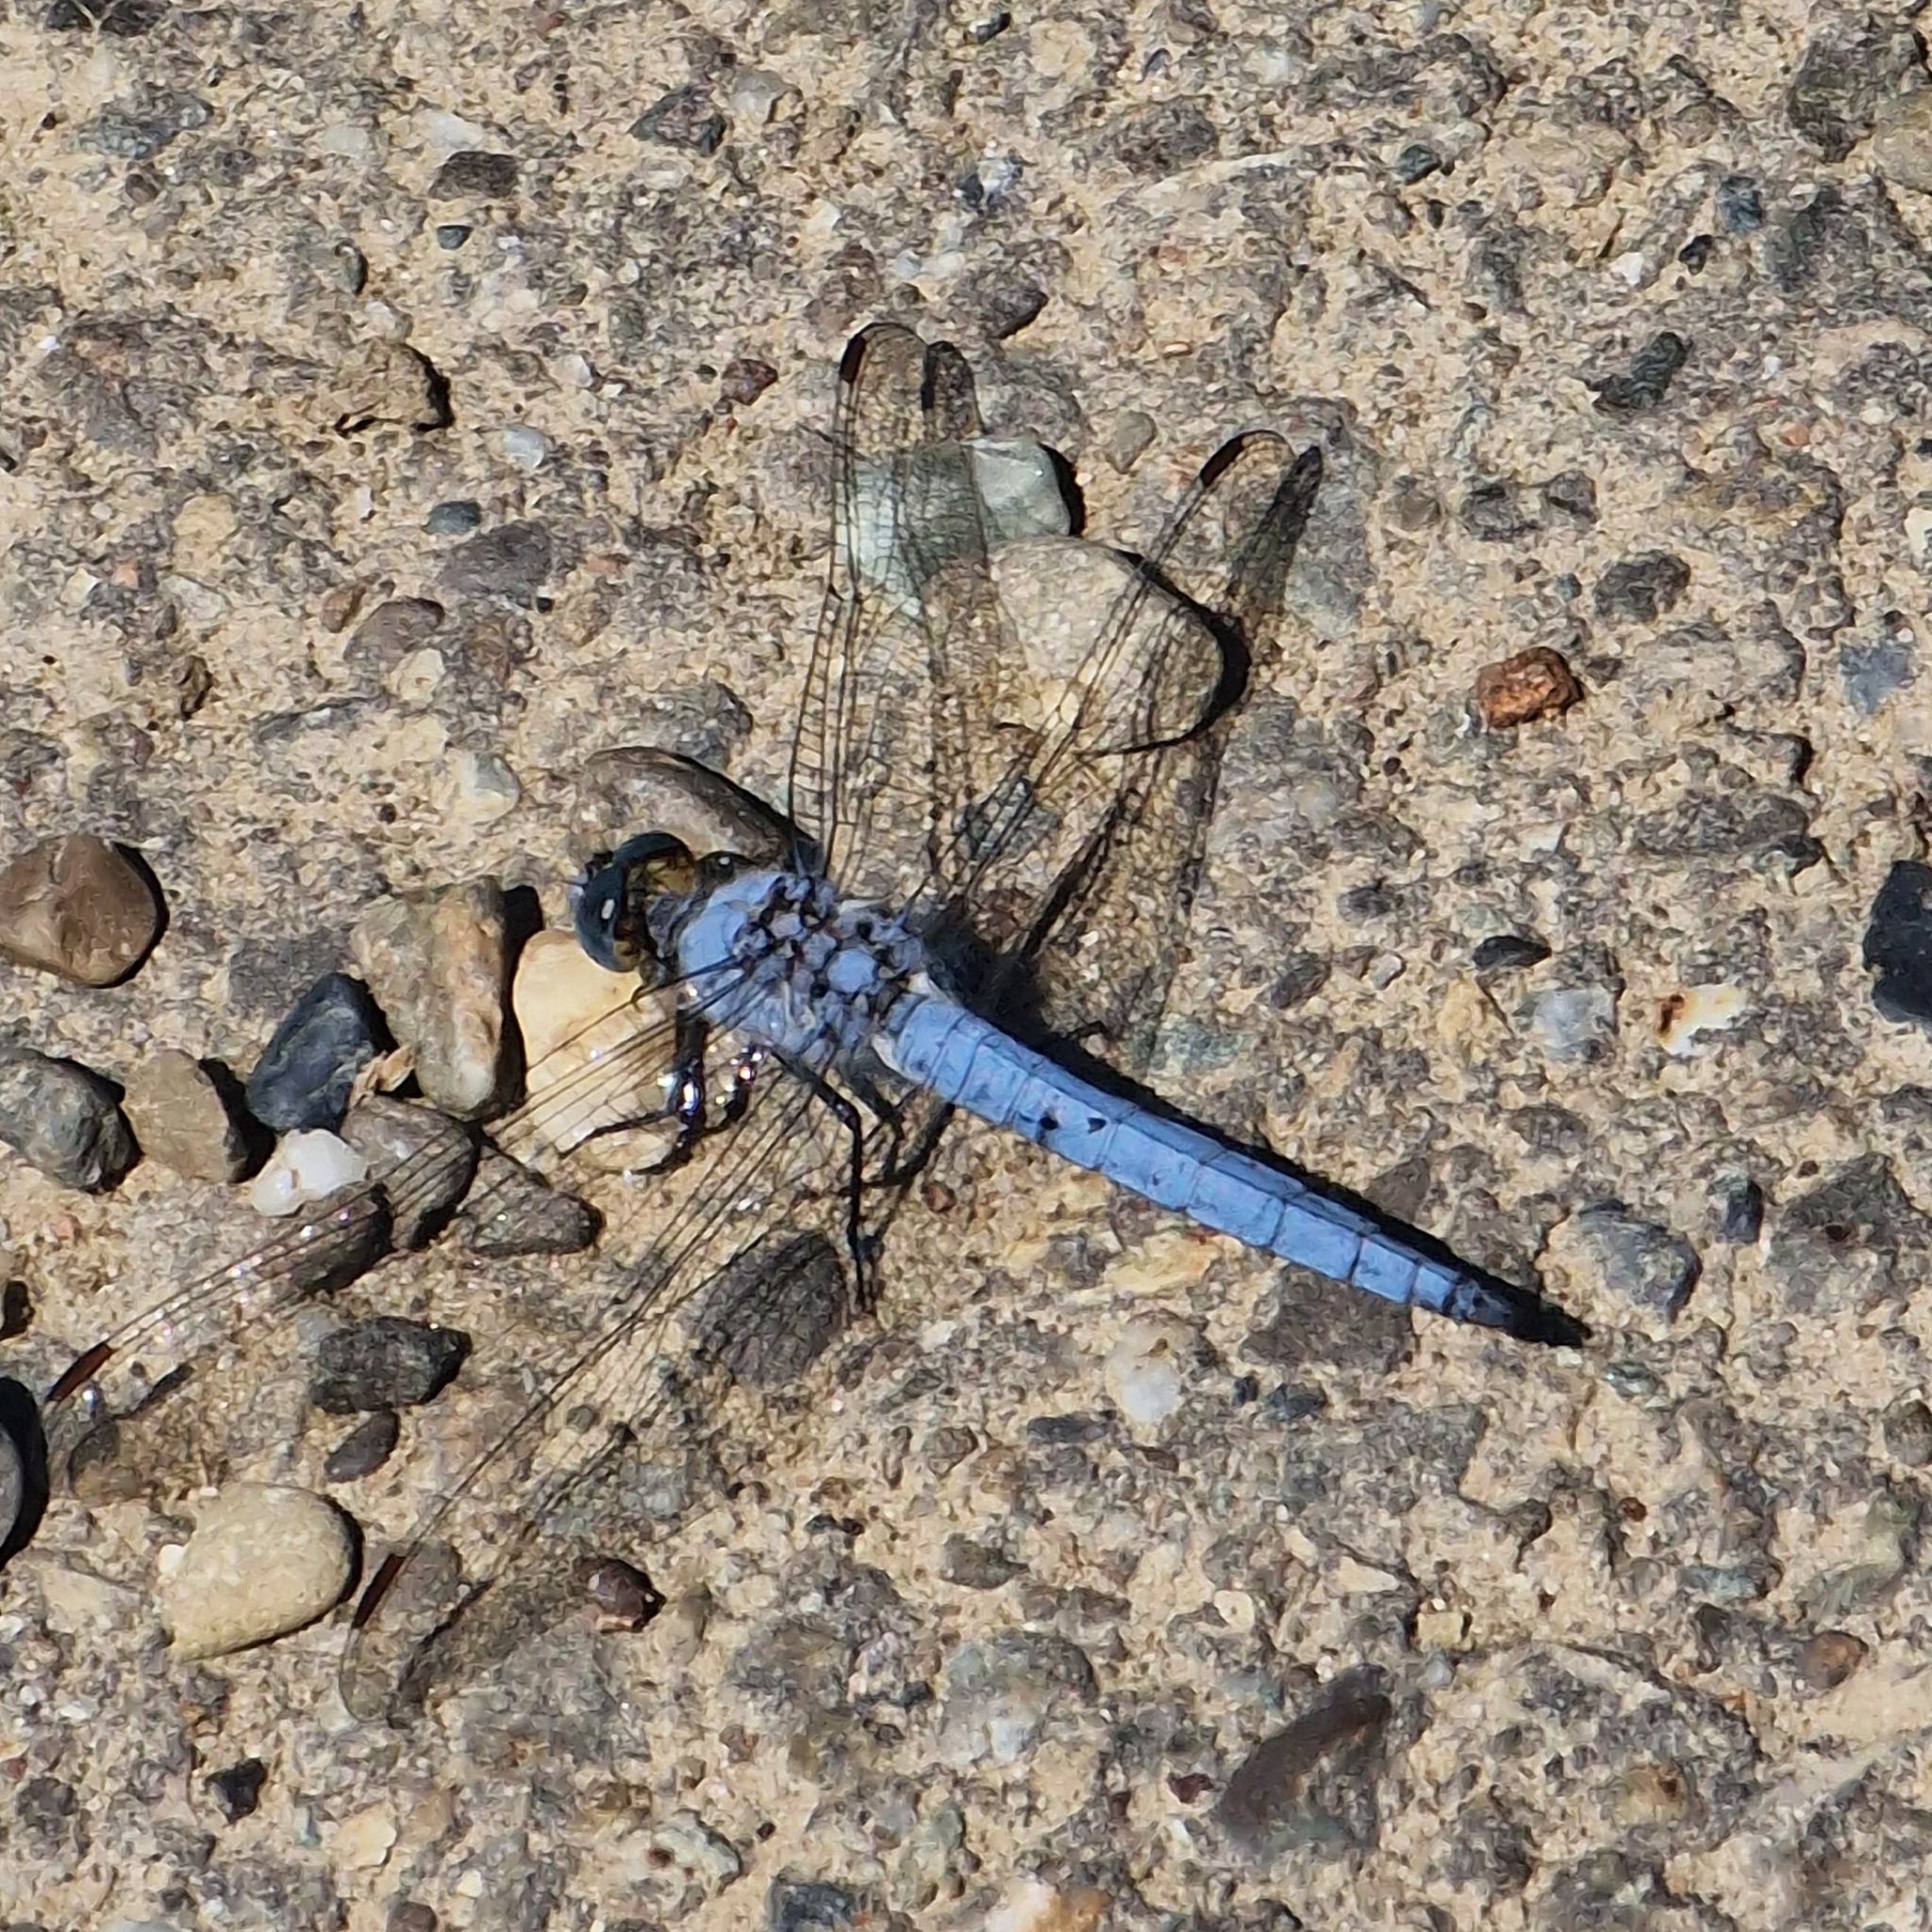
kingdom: Animalia
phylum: Arthropoda
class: Insecta
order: Odonata
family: Libellulidae
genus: Orthetrum
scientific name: Orthetrum brunneum
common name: Southern skimmer
